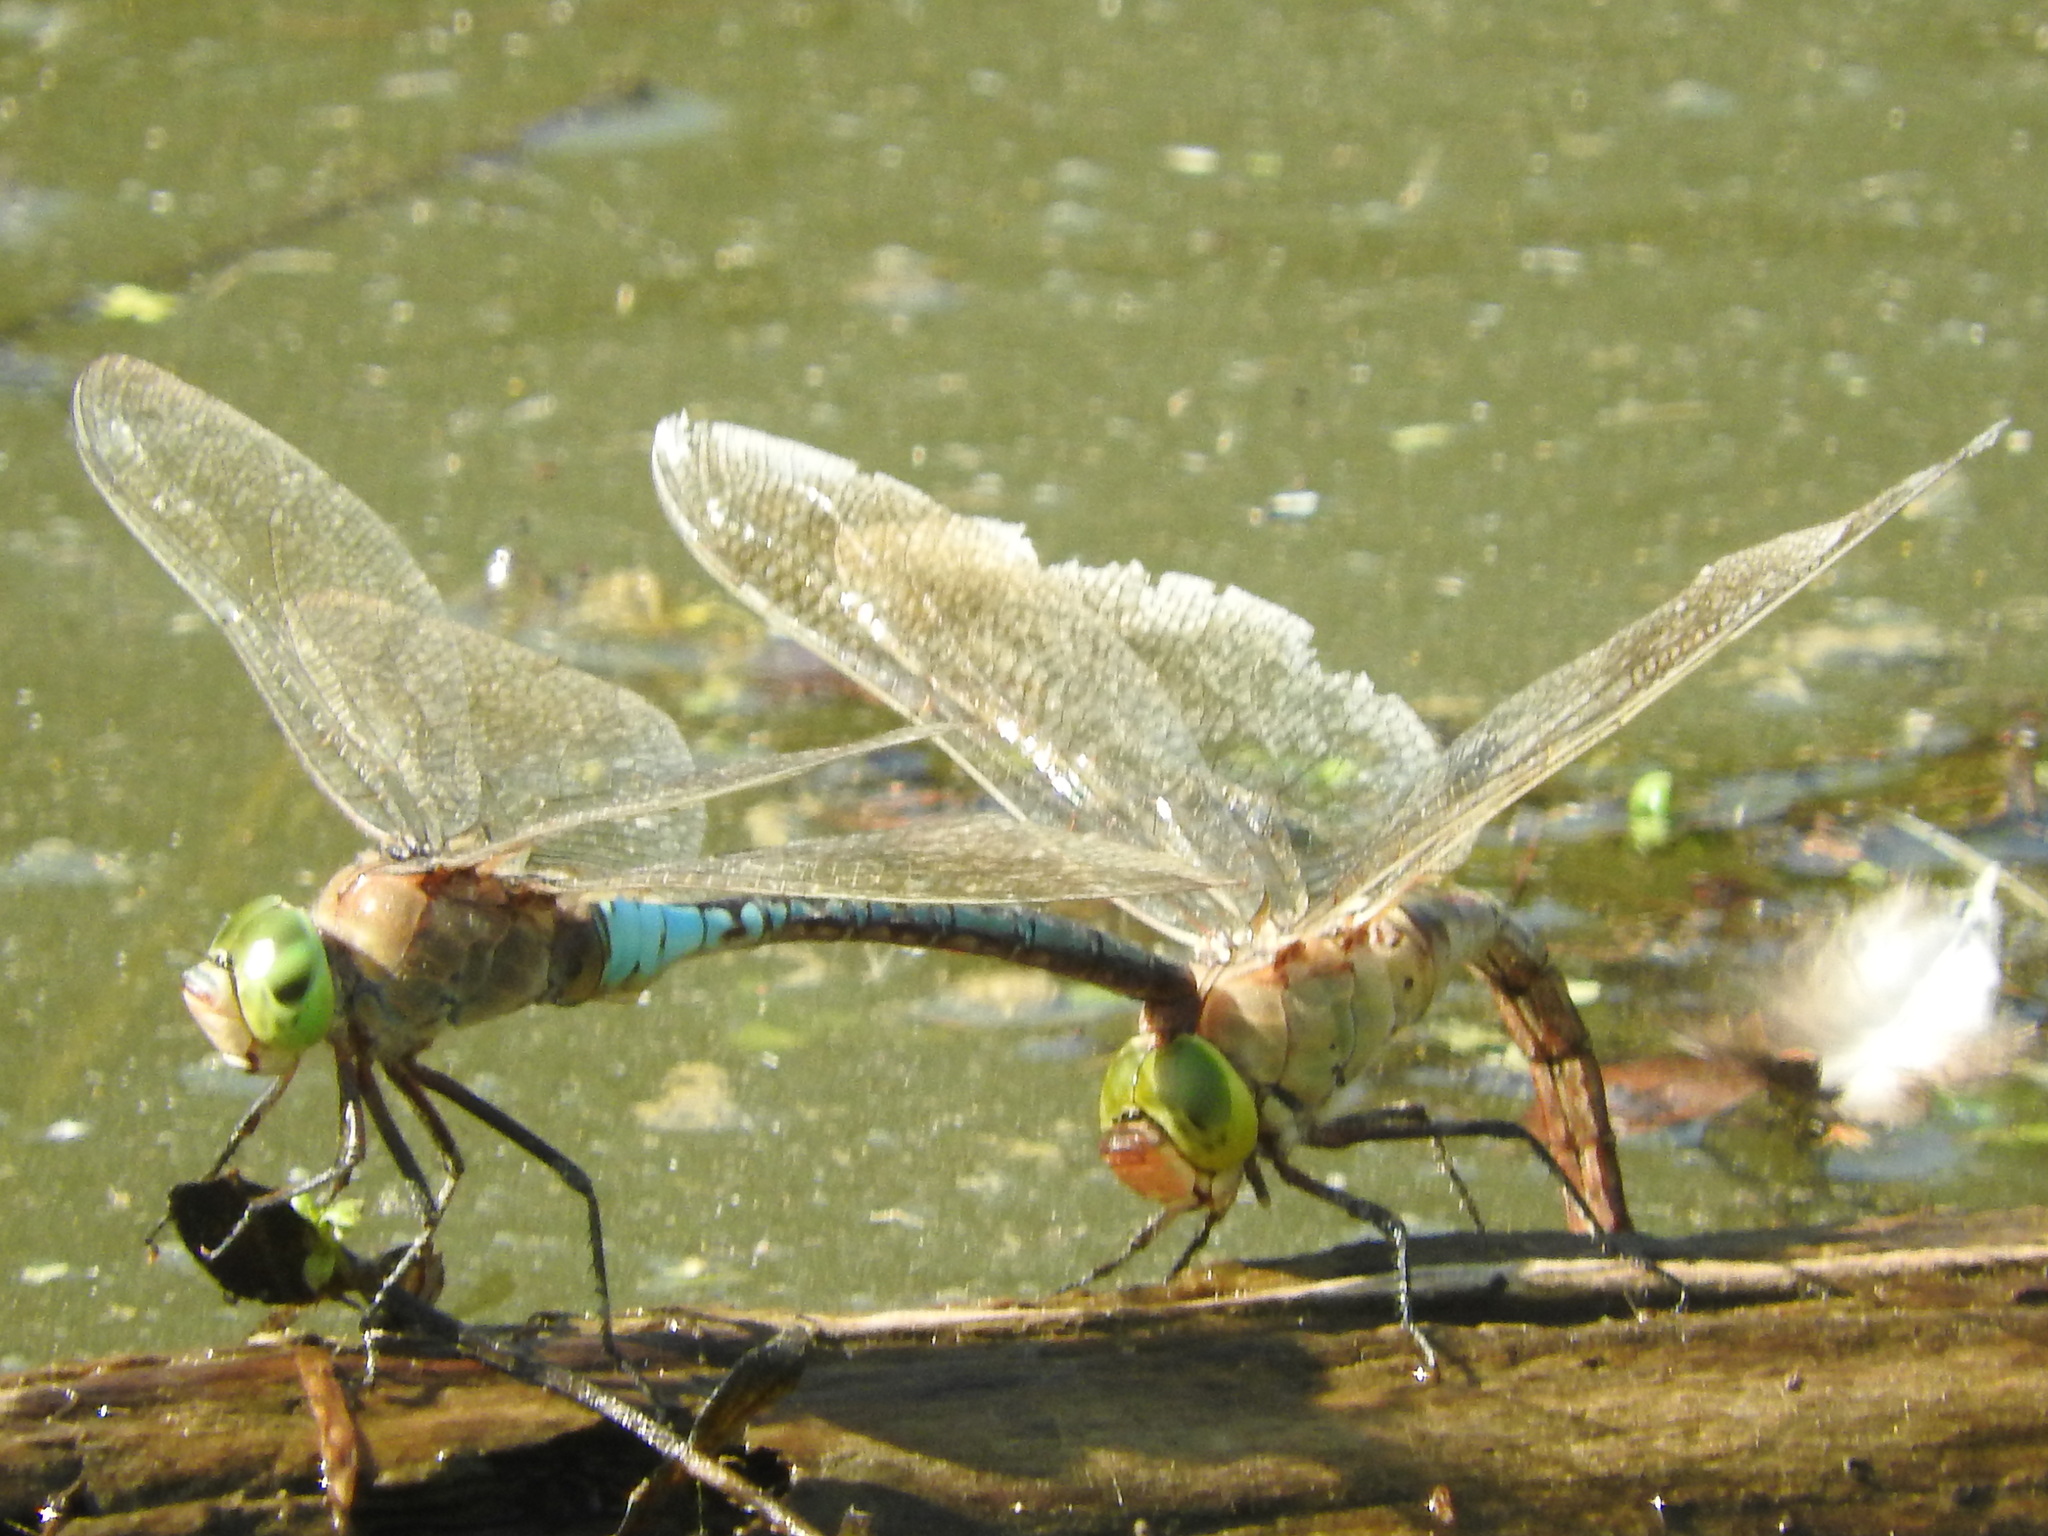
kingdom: Animalia
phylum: Arthropoda
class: Insecta
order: Odonata
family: Aeshnidae
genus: Anax
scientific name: Anax parthenope
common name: Lesser emperor
